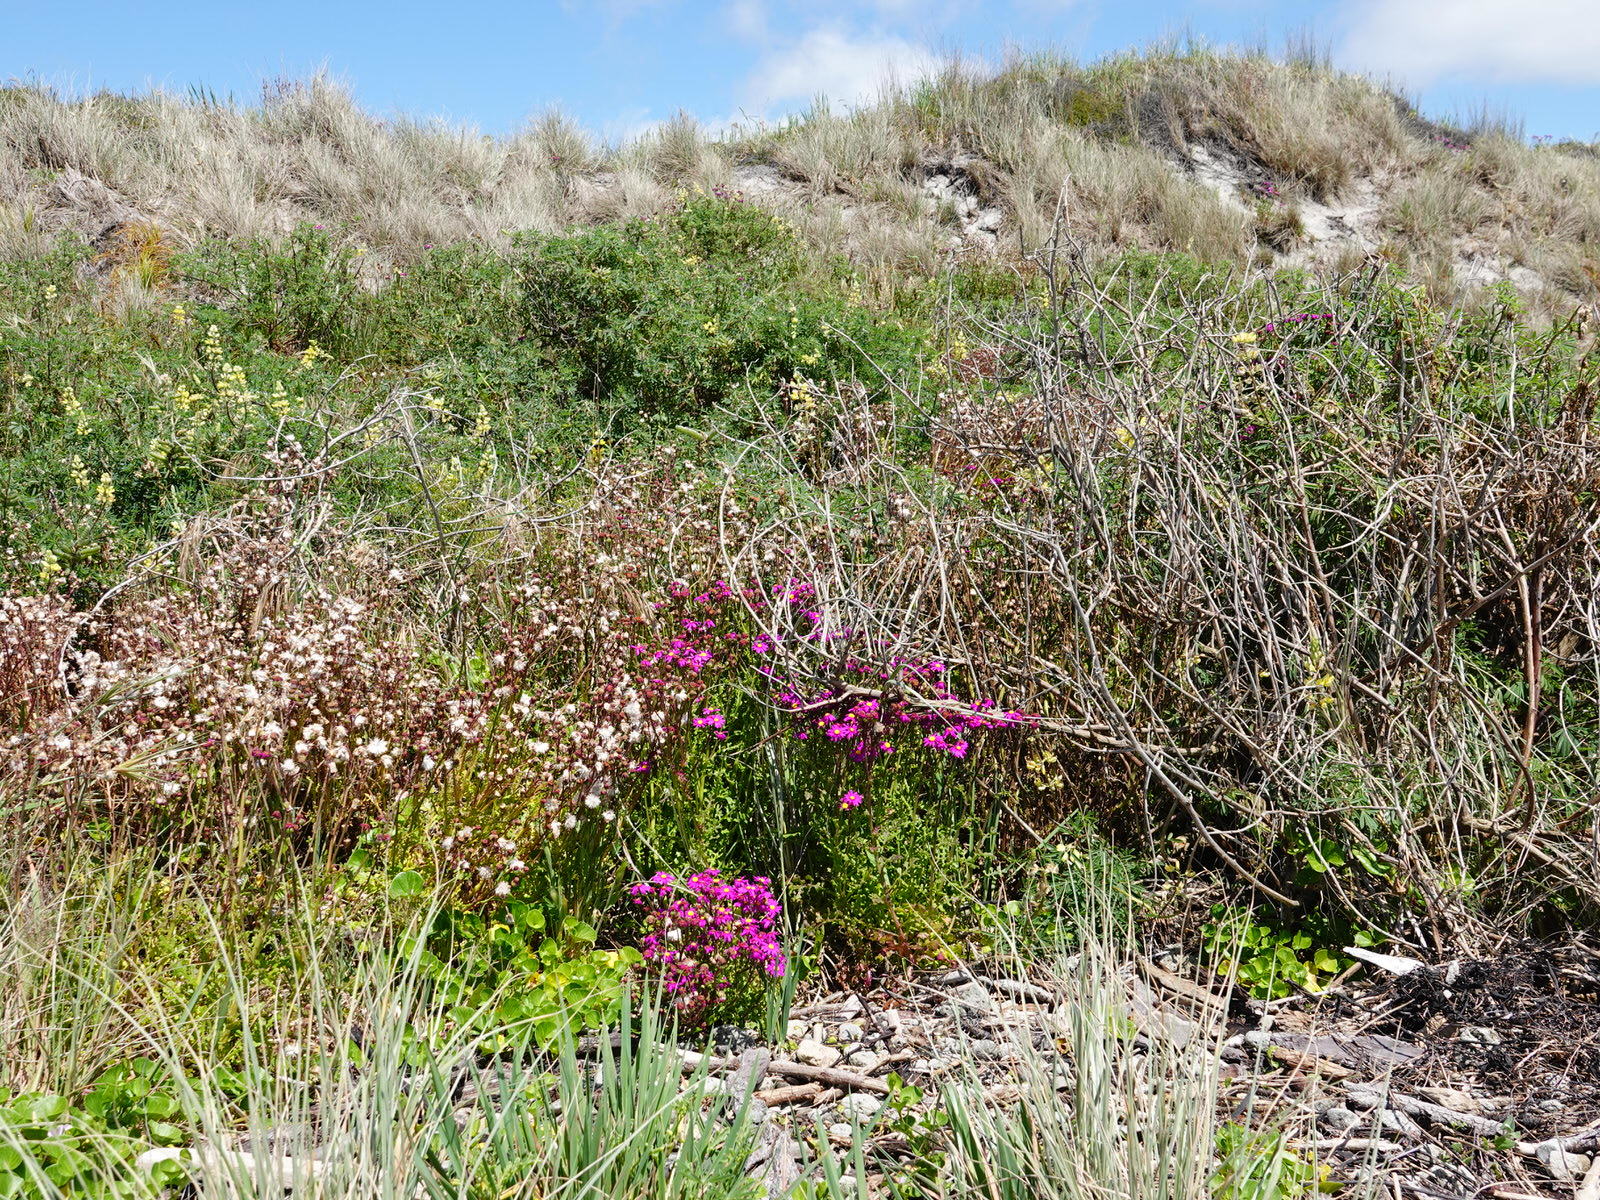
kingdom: Plantae
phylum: Tracheophyta
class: Magnoliopsida
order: Asterales
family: Asteraceae
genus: Senecio
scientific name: Senecio elegans
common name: Purple groundsel
